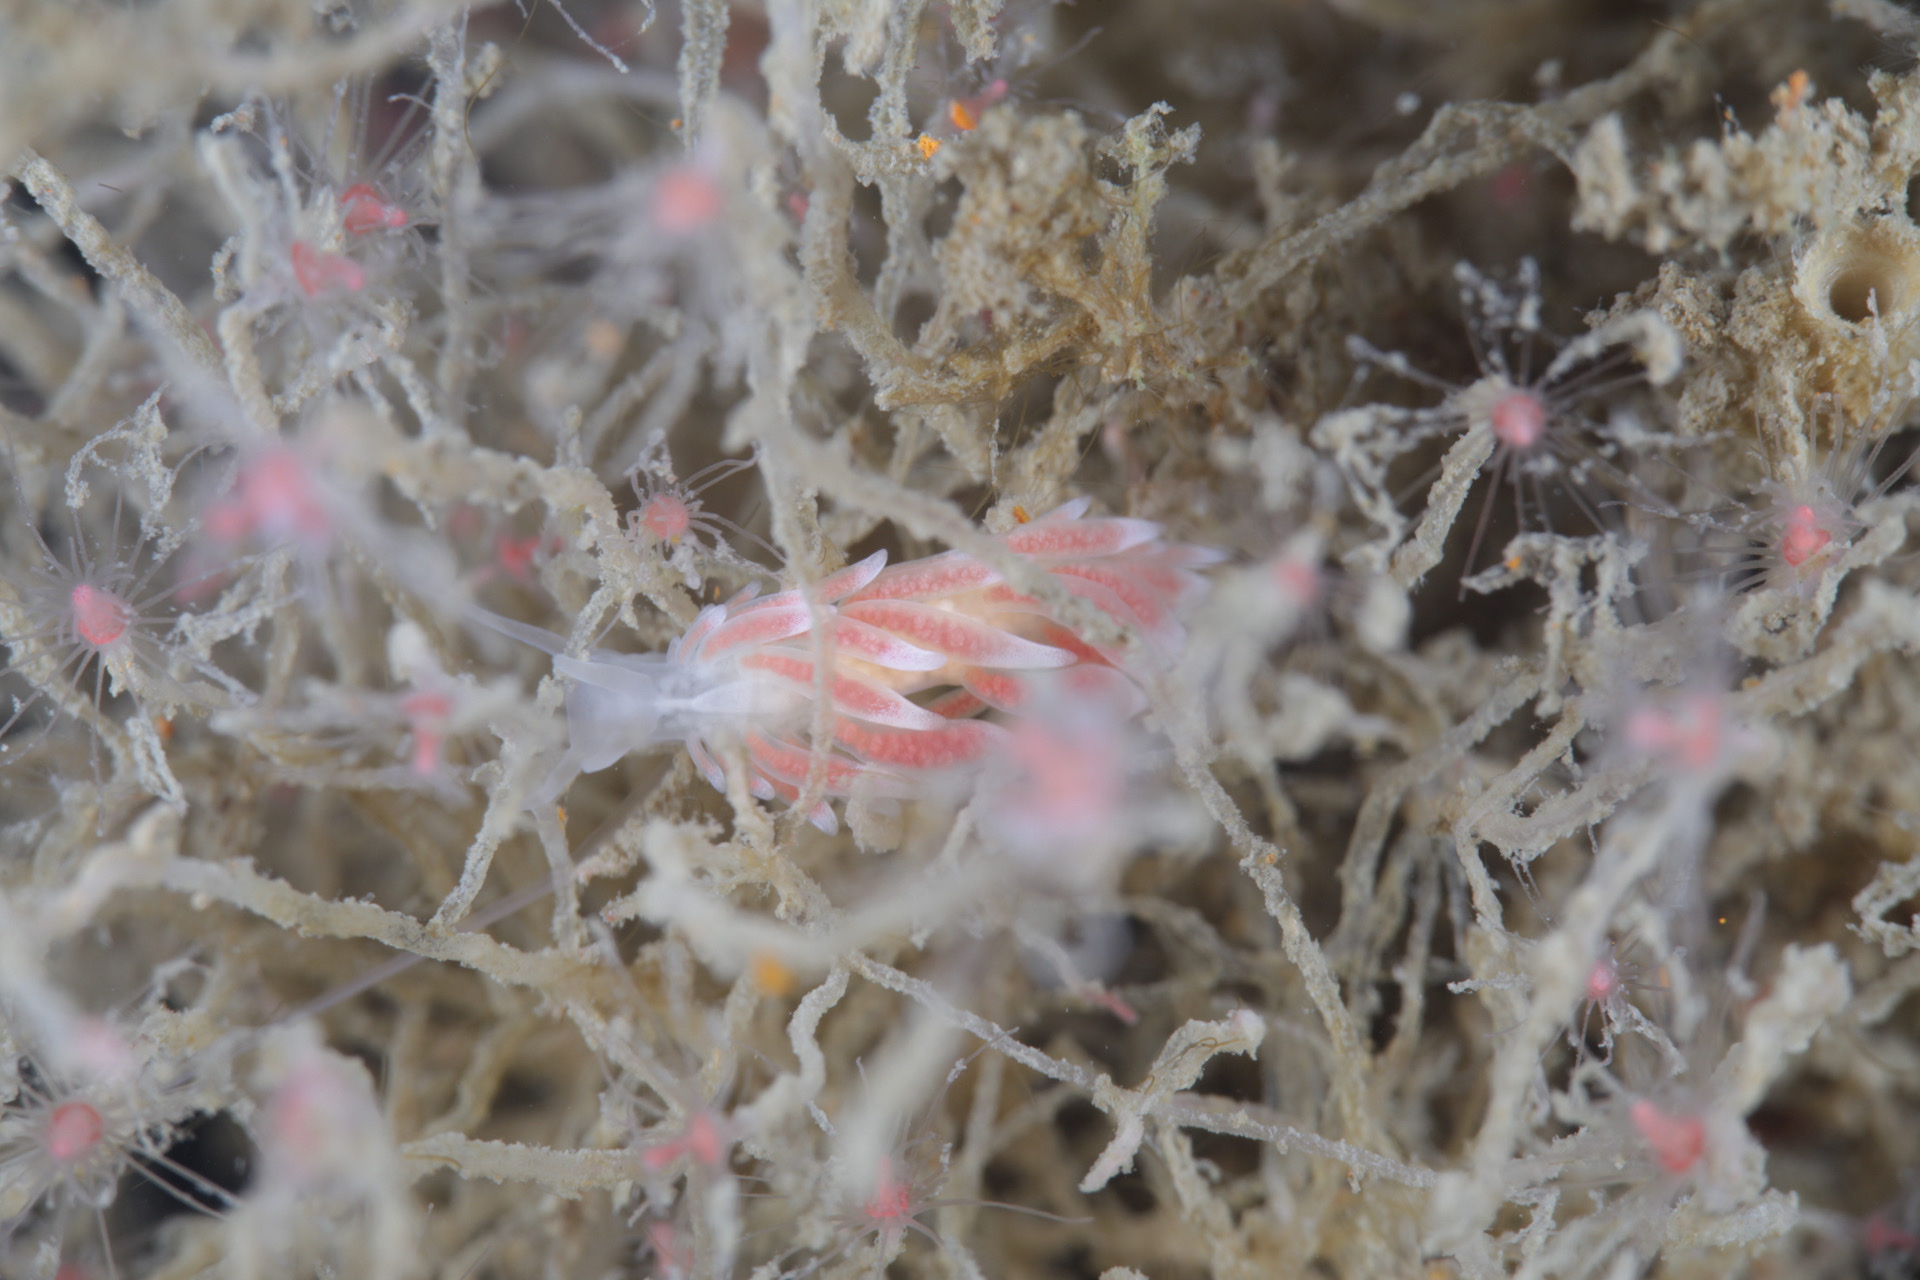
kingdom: Animalia
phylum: Mollusca
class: Gastropoda
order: Nudibranchia
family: Trinchesiidae
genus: Catriona
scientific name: Catriona aurantia
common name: Corange-tip cuthona
